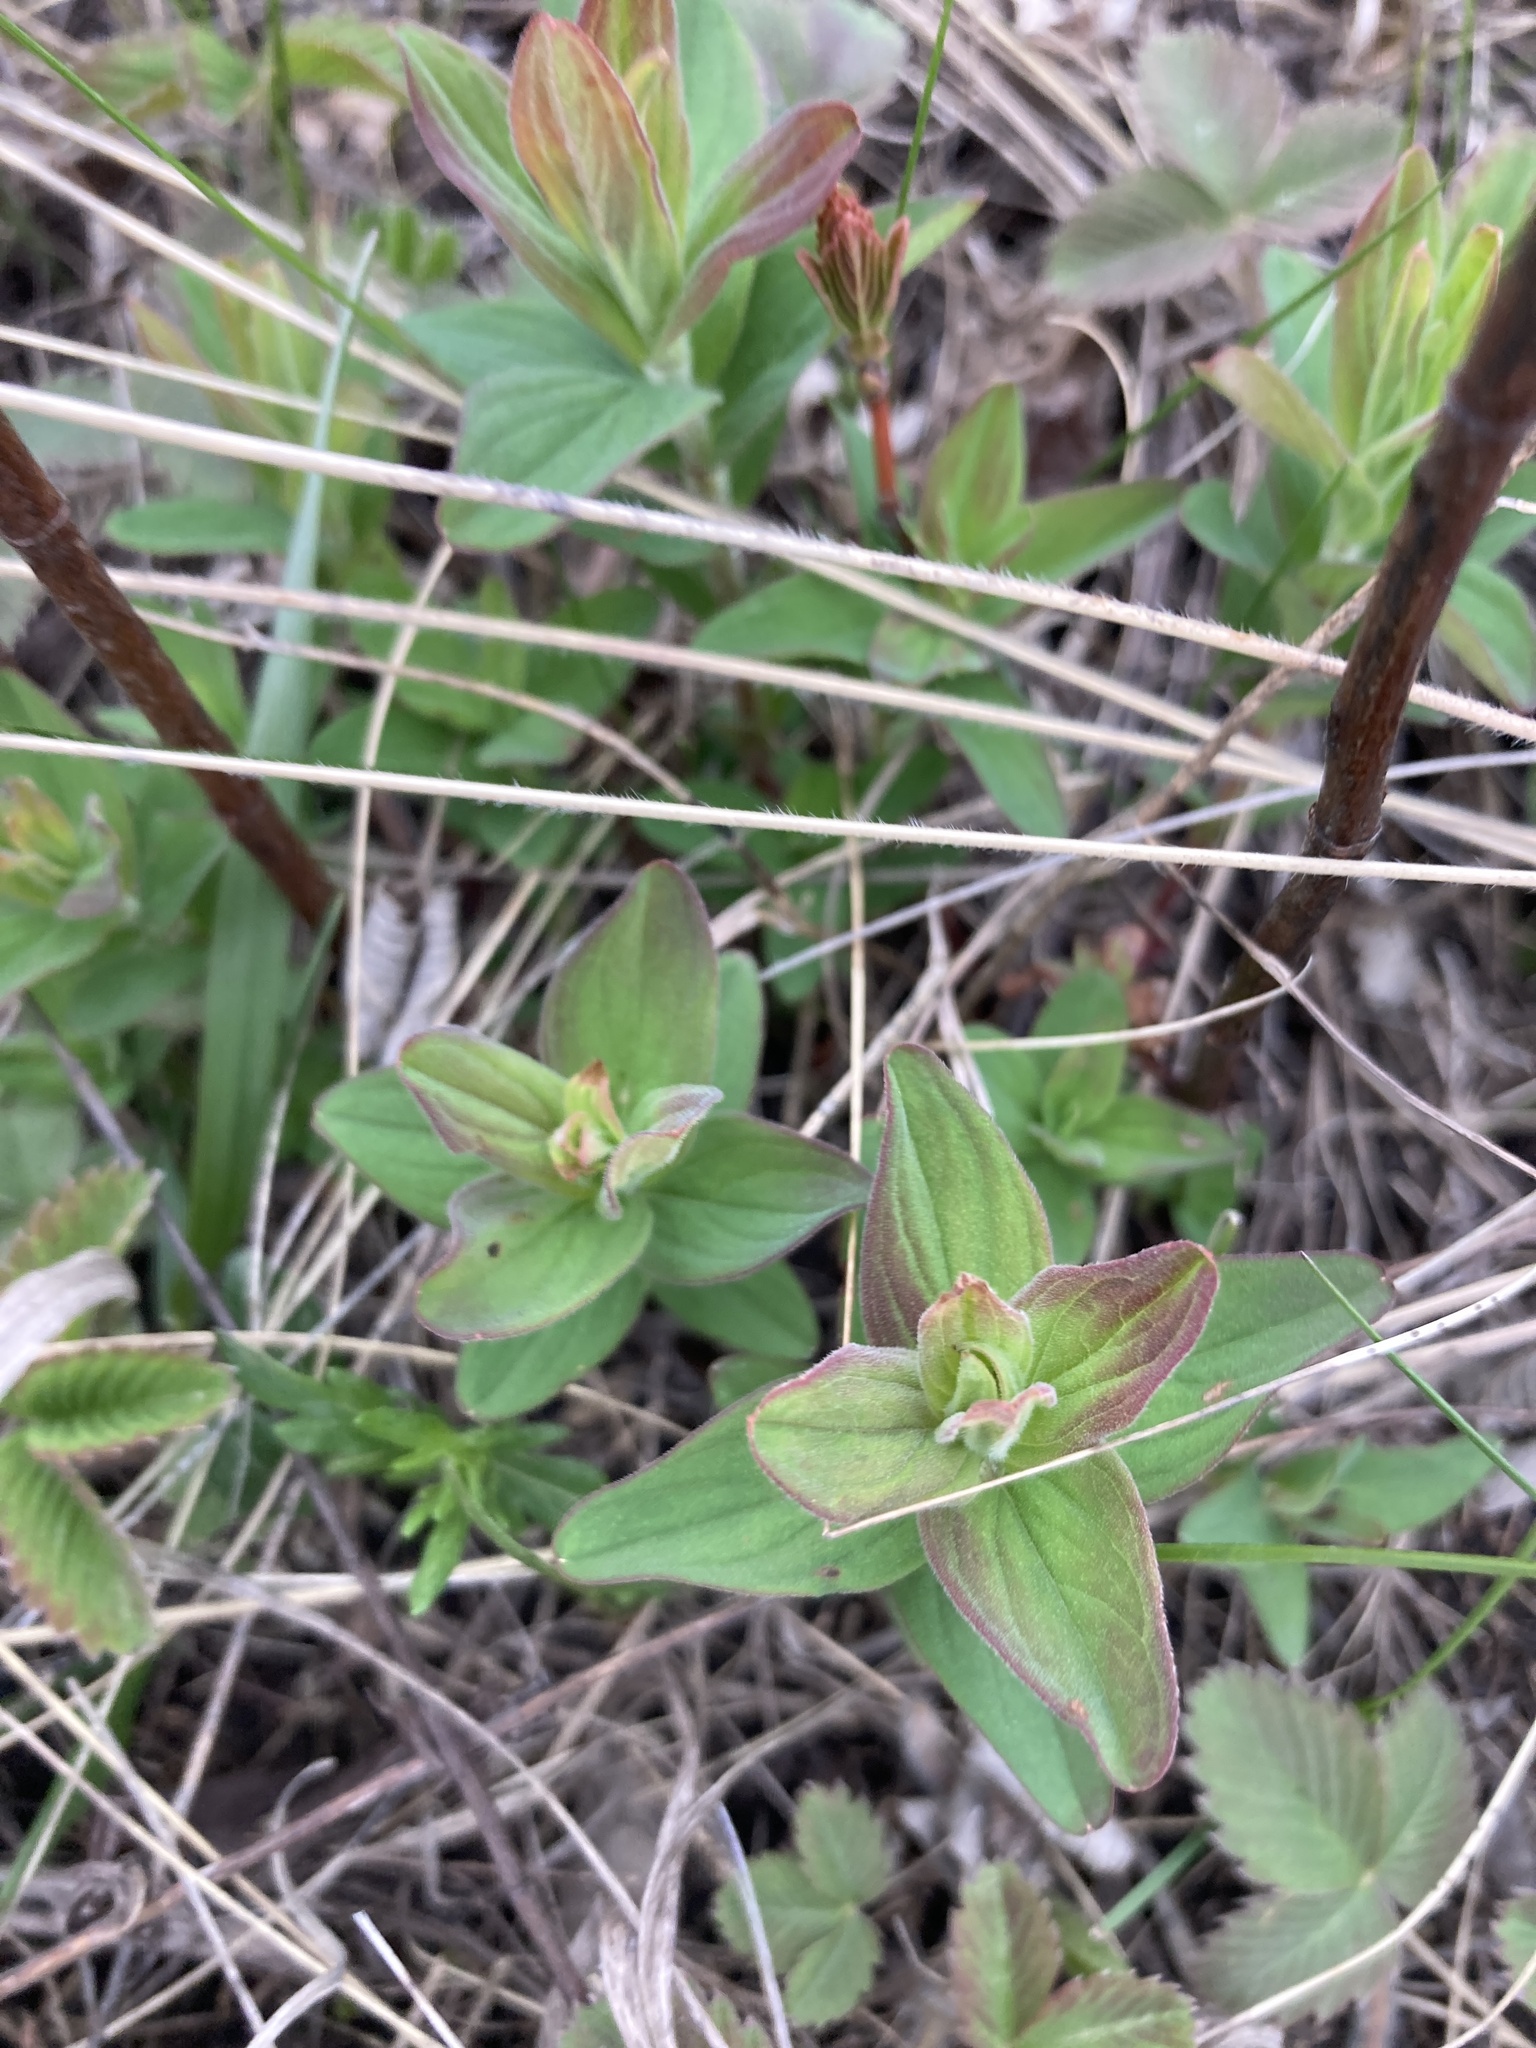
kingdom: Plantae
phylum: Tracheophyta
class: Magnoliopsida
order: Malpighiales
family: Hypericaceae
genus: Hypericum
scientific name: Hypericum hirsutum
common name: Hairy st. john's-wort
